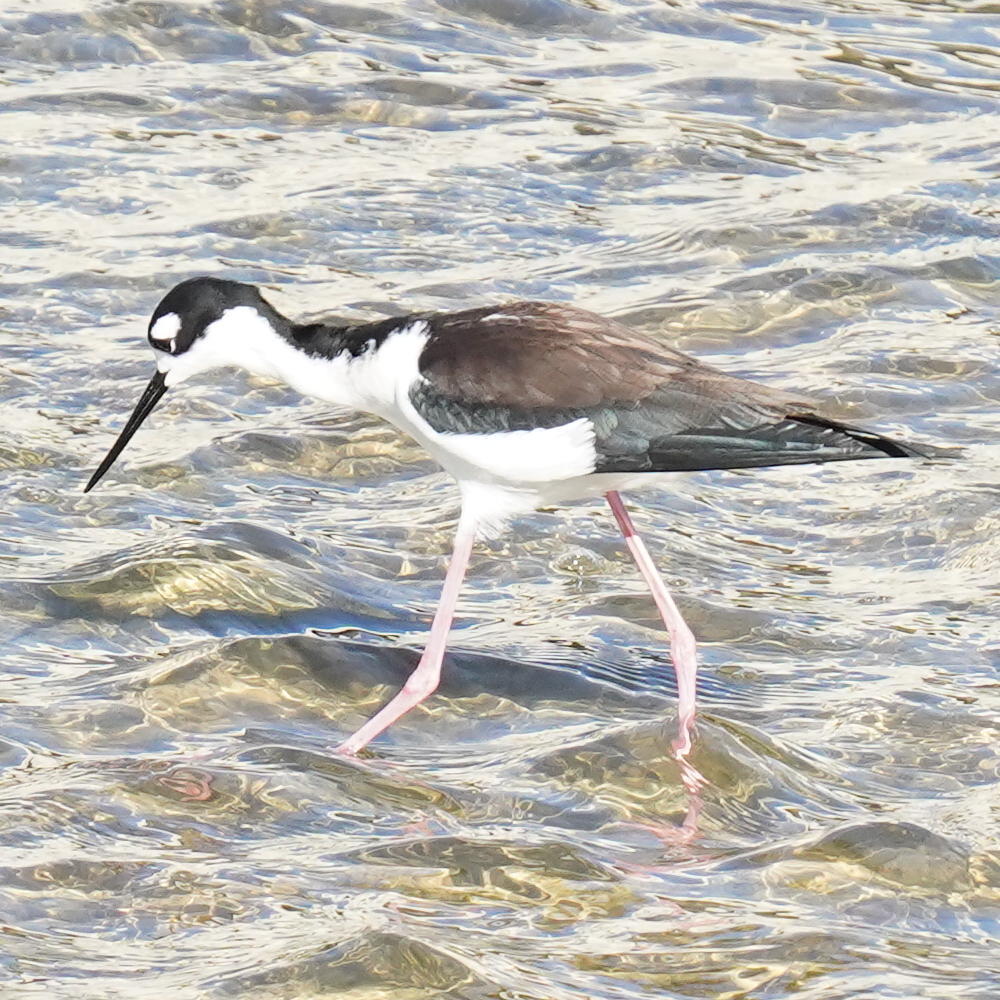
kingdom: Animalia
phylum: Chordata
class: Aves
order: Charadriiformes
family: Recurvirostridae
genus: Himantopus
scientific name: Himantopus mexicanus
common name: Black-necked stilt
